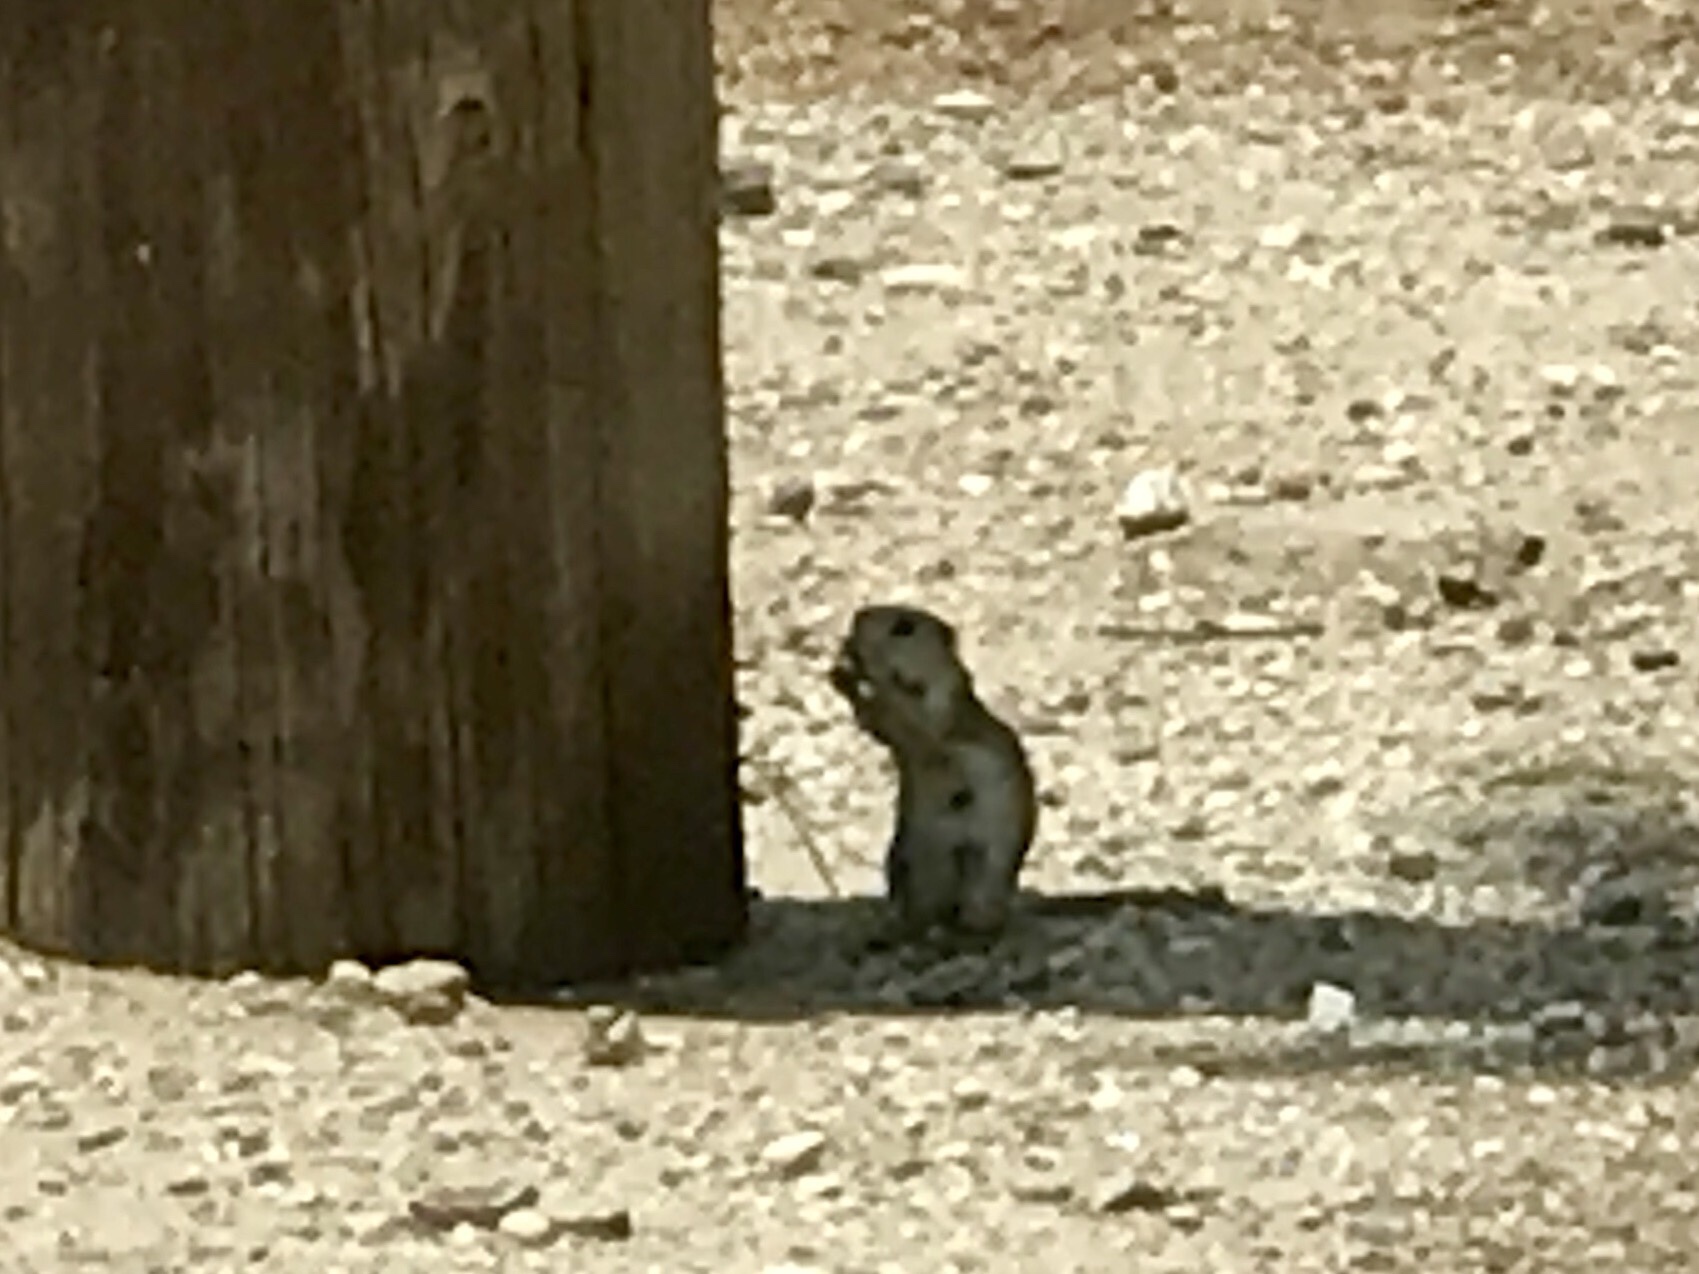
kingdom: Animalia
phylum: Chordata
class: Mammalia
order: Rodentia
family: Sciuridae
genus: Xerospermophilus
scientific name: Xerospermophilus tereticaudus
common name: Round-tailed ground squirrel
